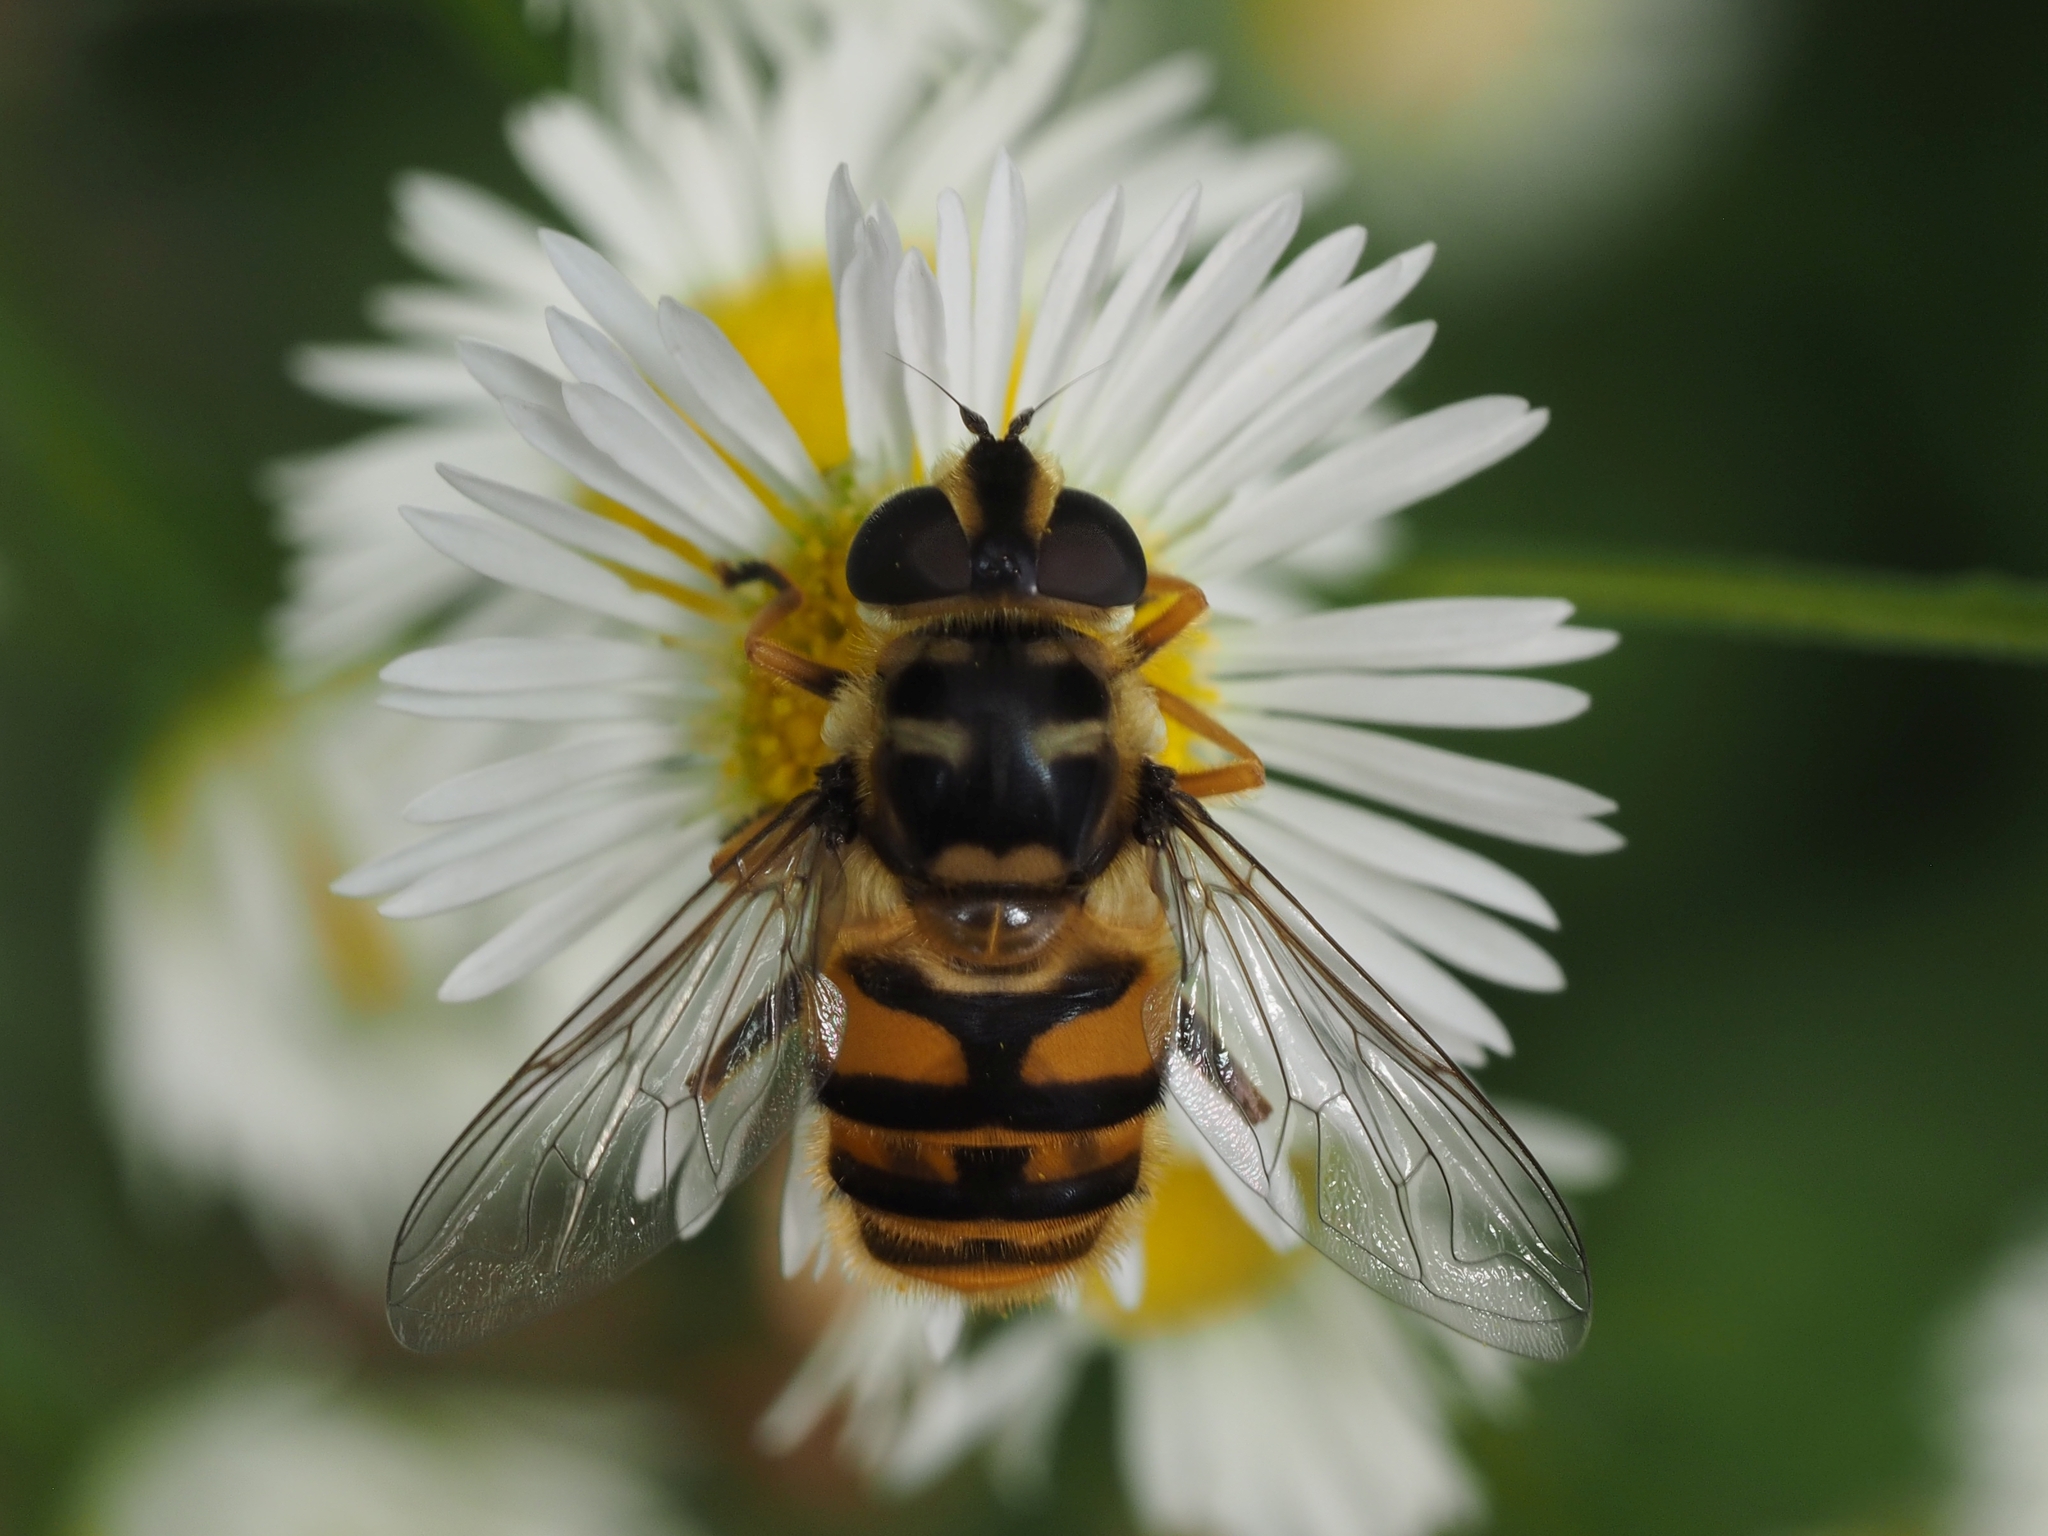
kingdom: Animalia
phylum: Arthropoda
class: Insecta
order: Diptera
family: Syrphidae
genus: Myathropa
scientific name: Myathropa florea
